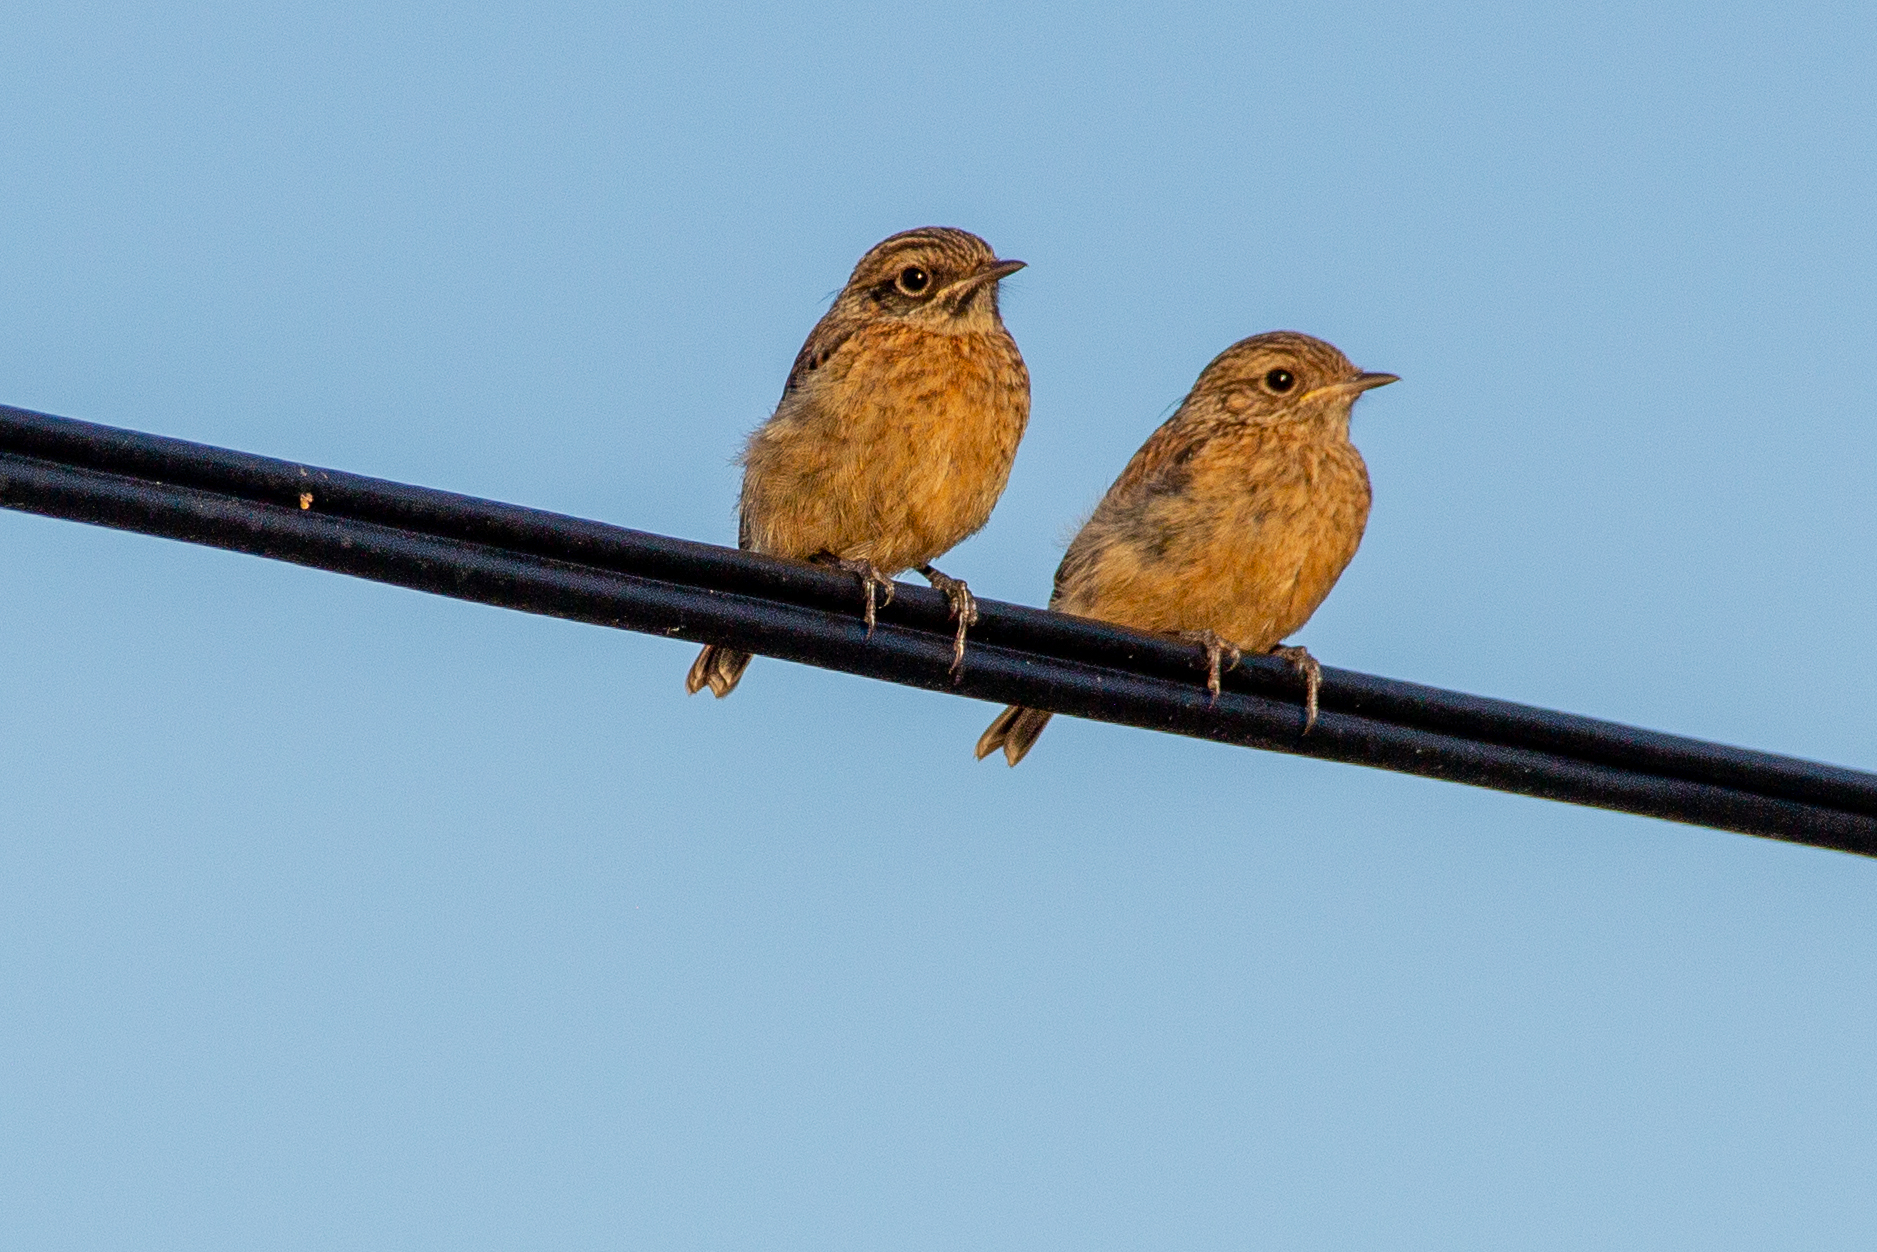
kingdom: Animalia
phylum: Chordata
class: Aves
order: Passeriformes
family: Muscicapidae
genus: Saxicola
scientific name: Saxicola rubicola
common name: European stonechat
